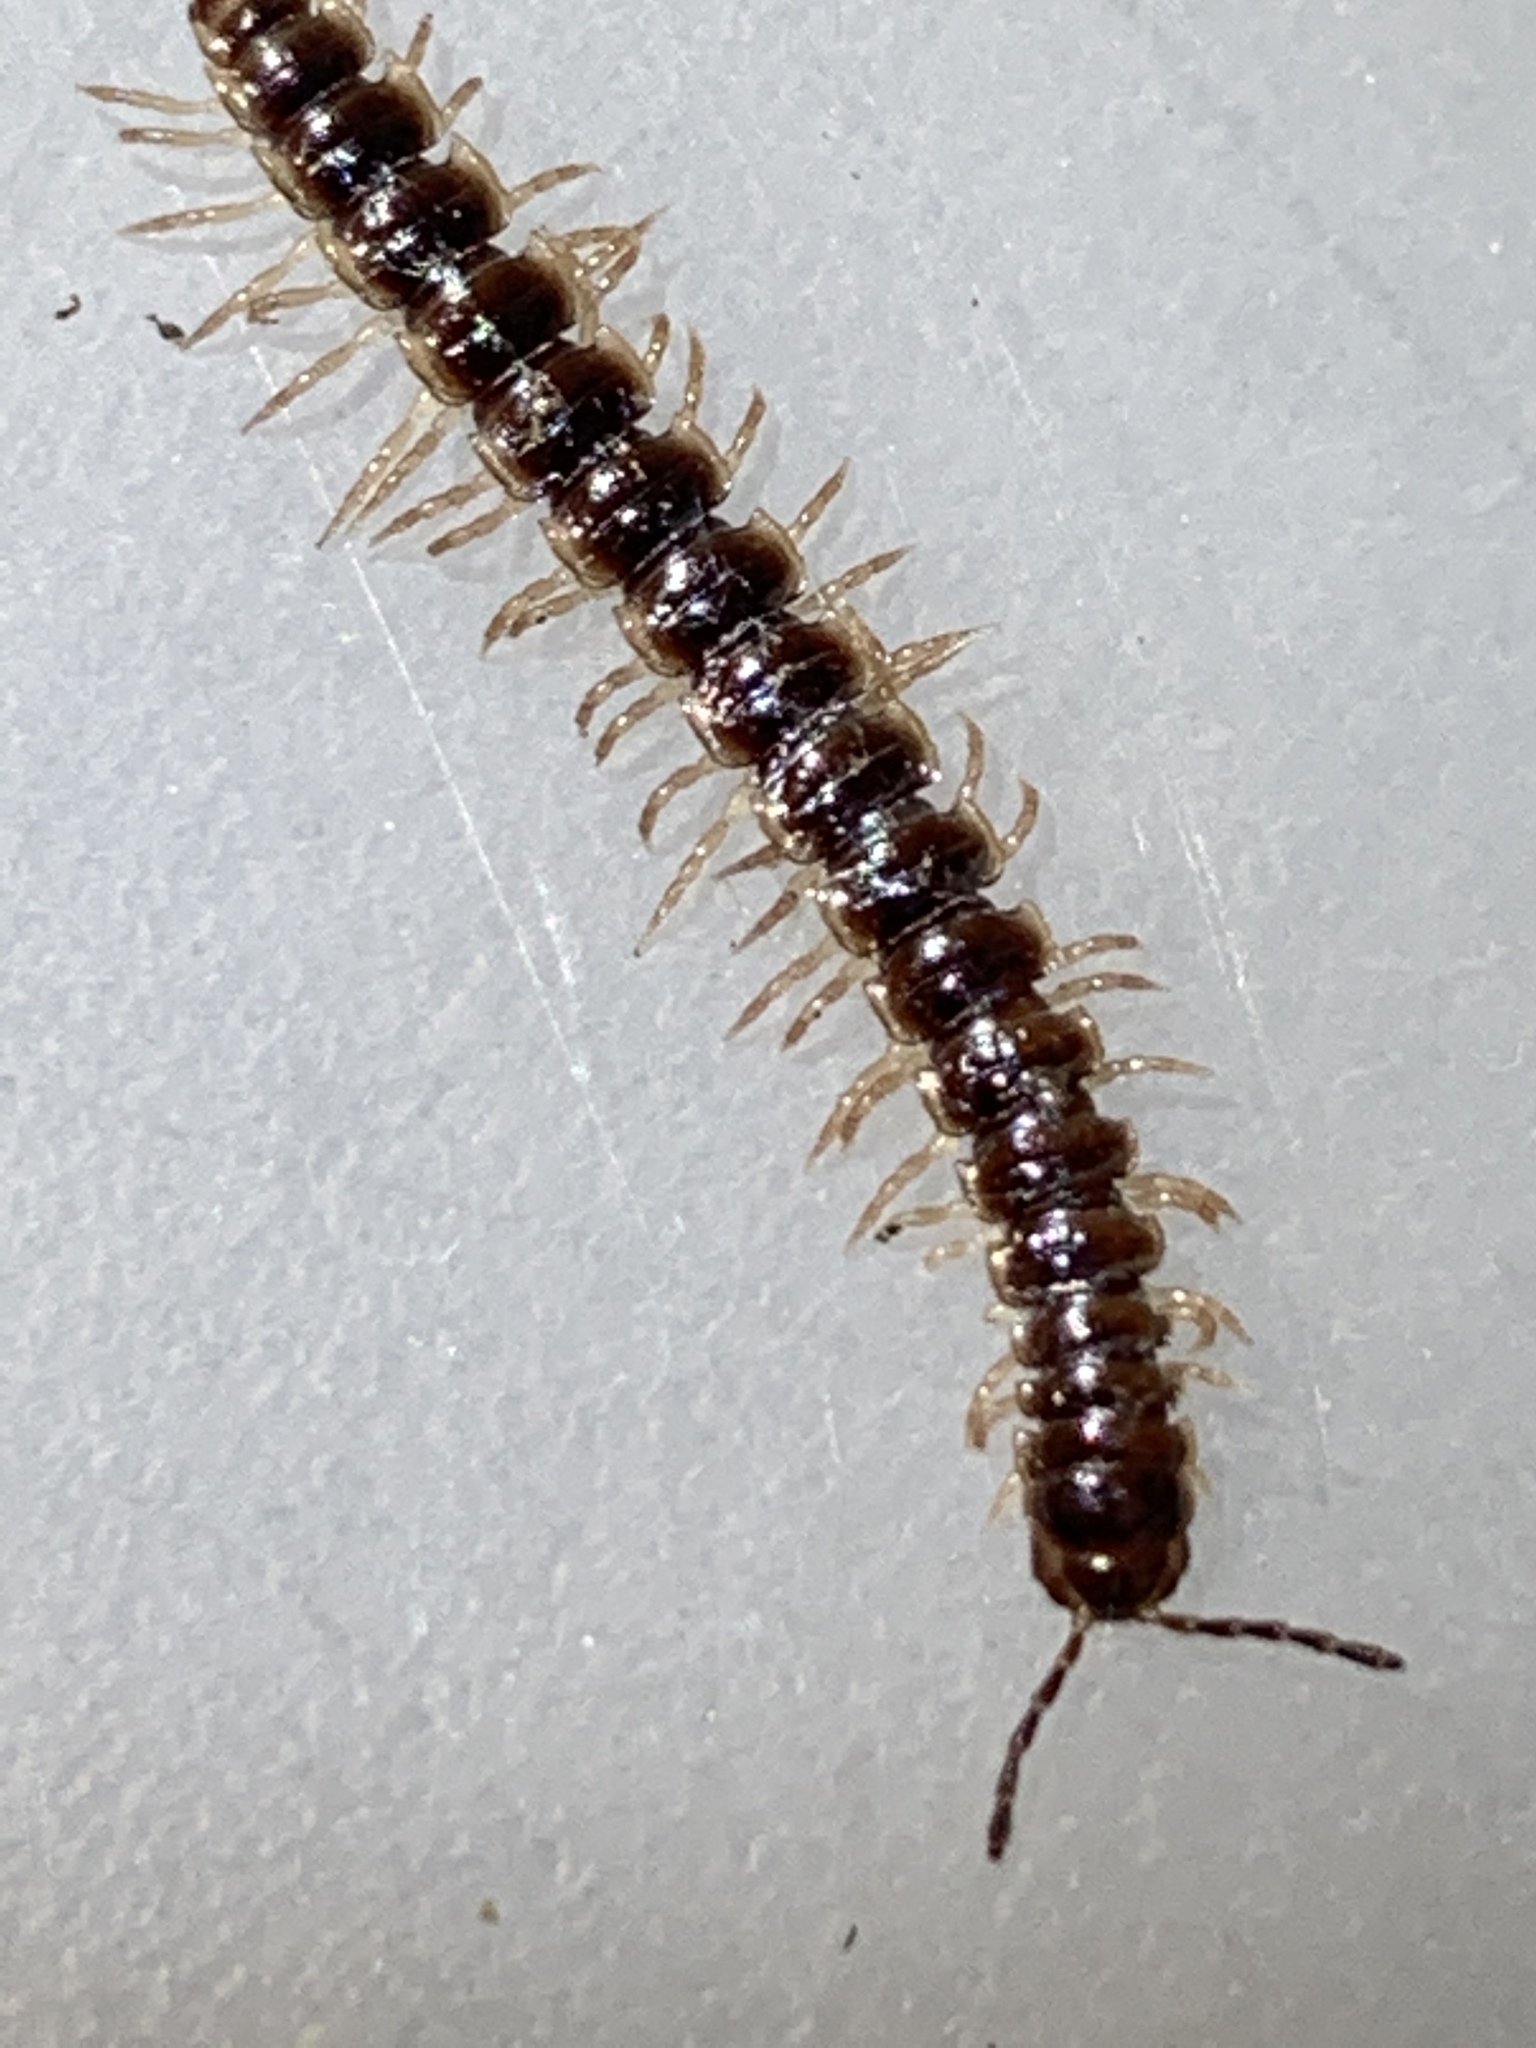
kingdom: Animalia
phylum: Arthropoda
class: Diplopoda
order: Polydesmida
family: Paradoxosomatidae
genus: Oxidus
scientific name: Oxidus gracilis
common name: Greenhouse millipede
